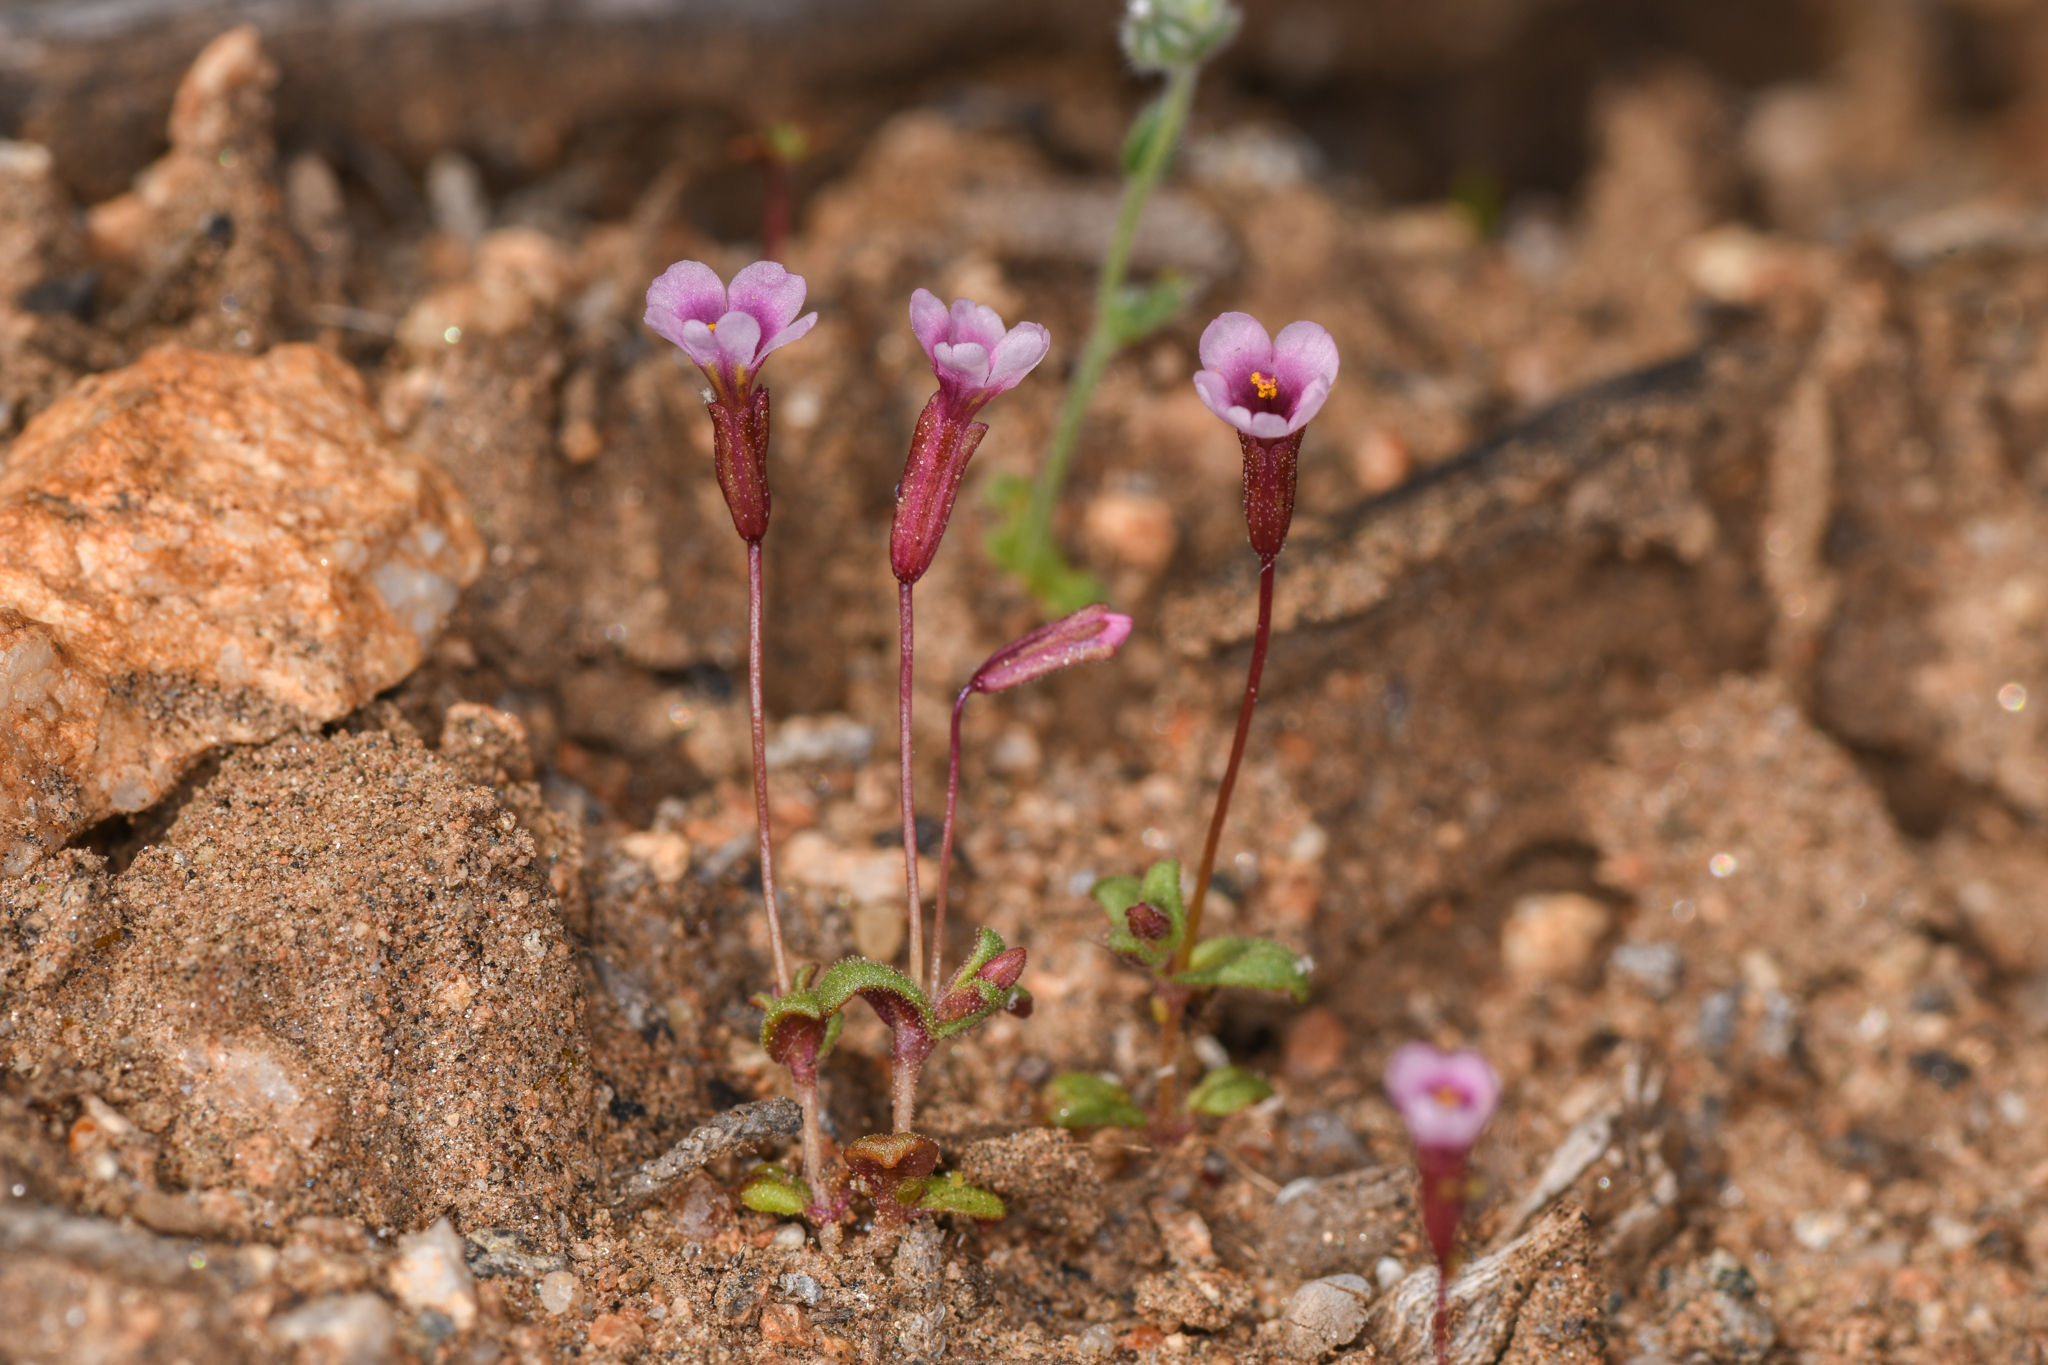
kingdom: Plantae
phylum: Tracheophyta
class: Magnoliopsida
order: Lamiales
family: Phrymaceae
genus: Erythranthe
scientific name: Erythranthe androsacea
